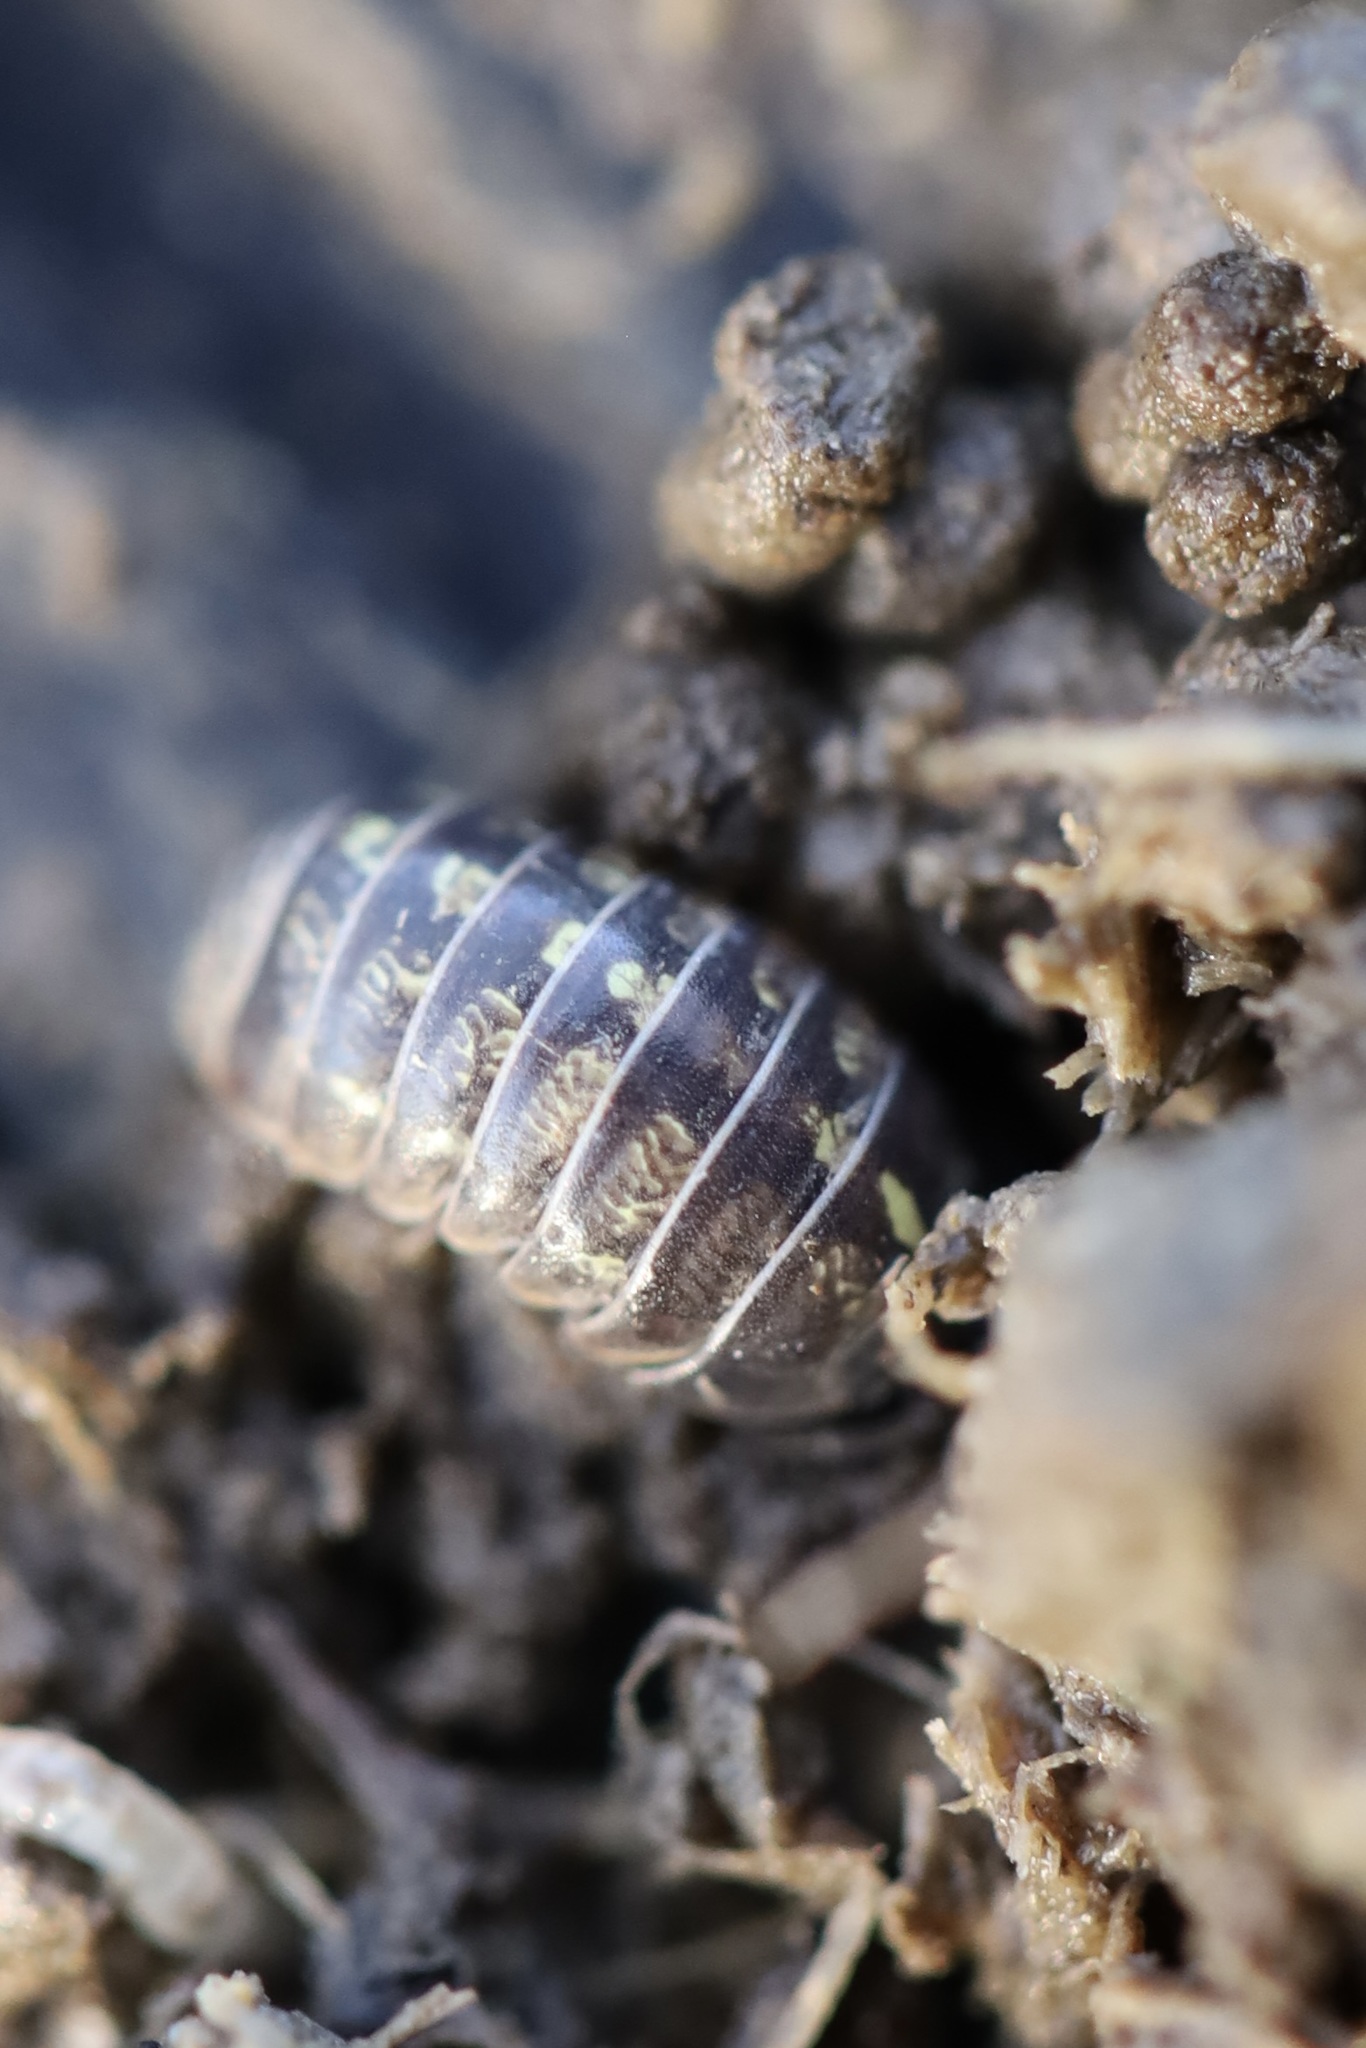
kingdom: Animalia
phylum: Arthropoda
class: Malacostraca
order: Isopoda
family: Armadillidiidae
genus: Armadillidium
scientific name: Armadillidium vulgare
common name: Common pill woodlouse
